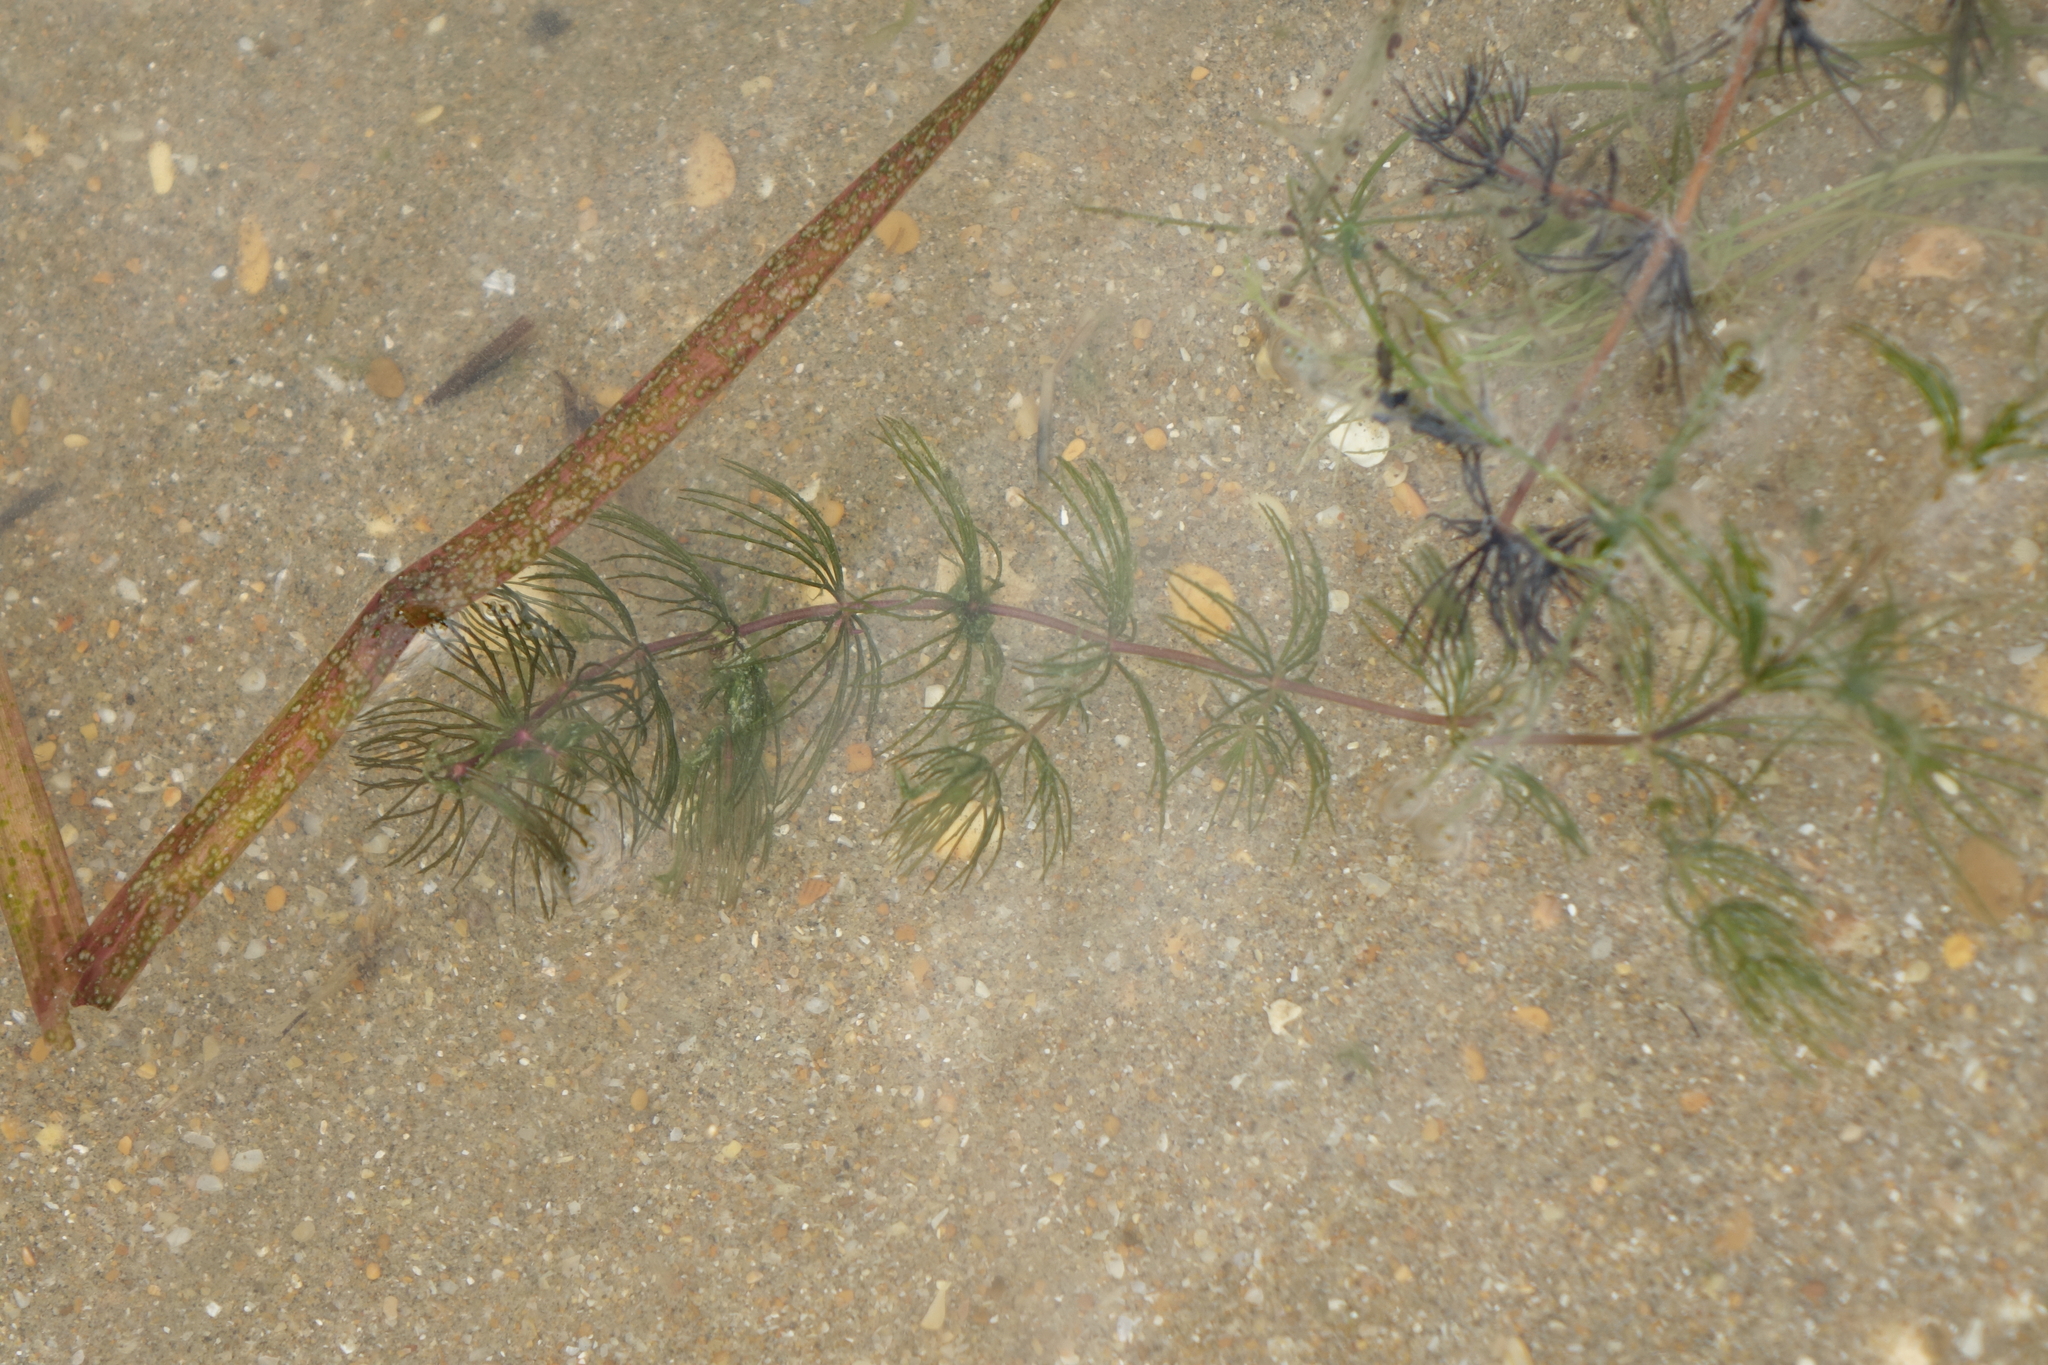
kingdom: Plantae
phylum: Tracheophyta
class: Magnoliopsida
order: Ceratophyllales
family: Ceratophyllaceae
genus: Ceratophyllum
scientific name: Ceratophyllum demersum
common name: Rigid hornwort
